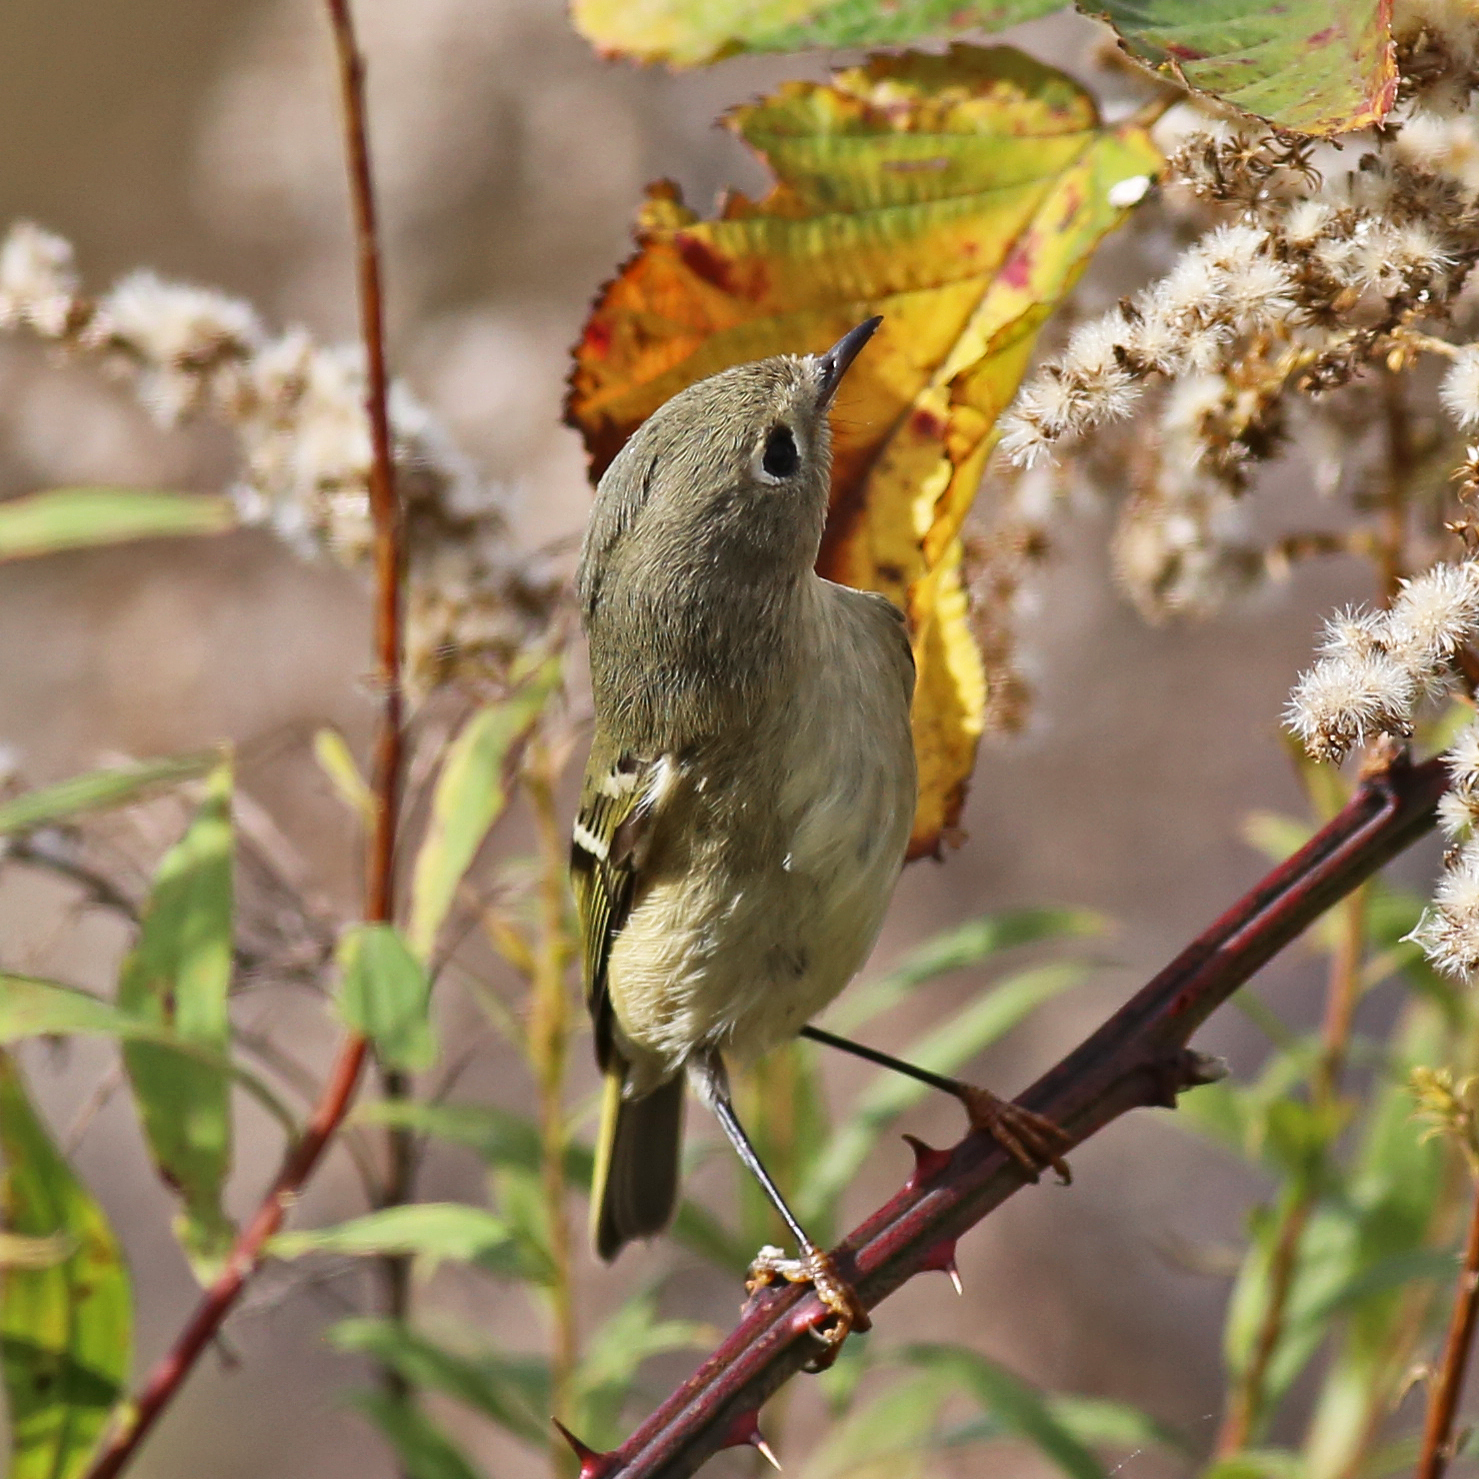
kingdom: Animalia
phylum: Chordata
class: Aves
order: Passeriformes
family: Regulidae
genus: Regulus
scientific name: Regulus calendula
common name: Ruby-crowned kinglet
